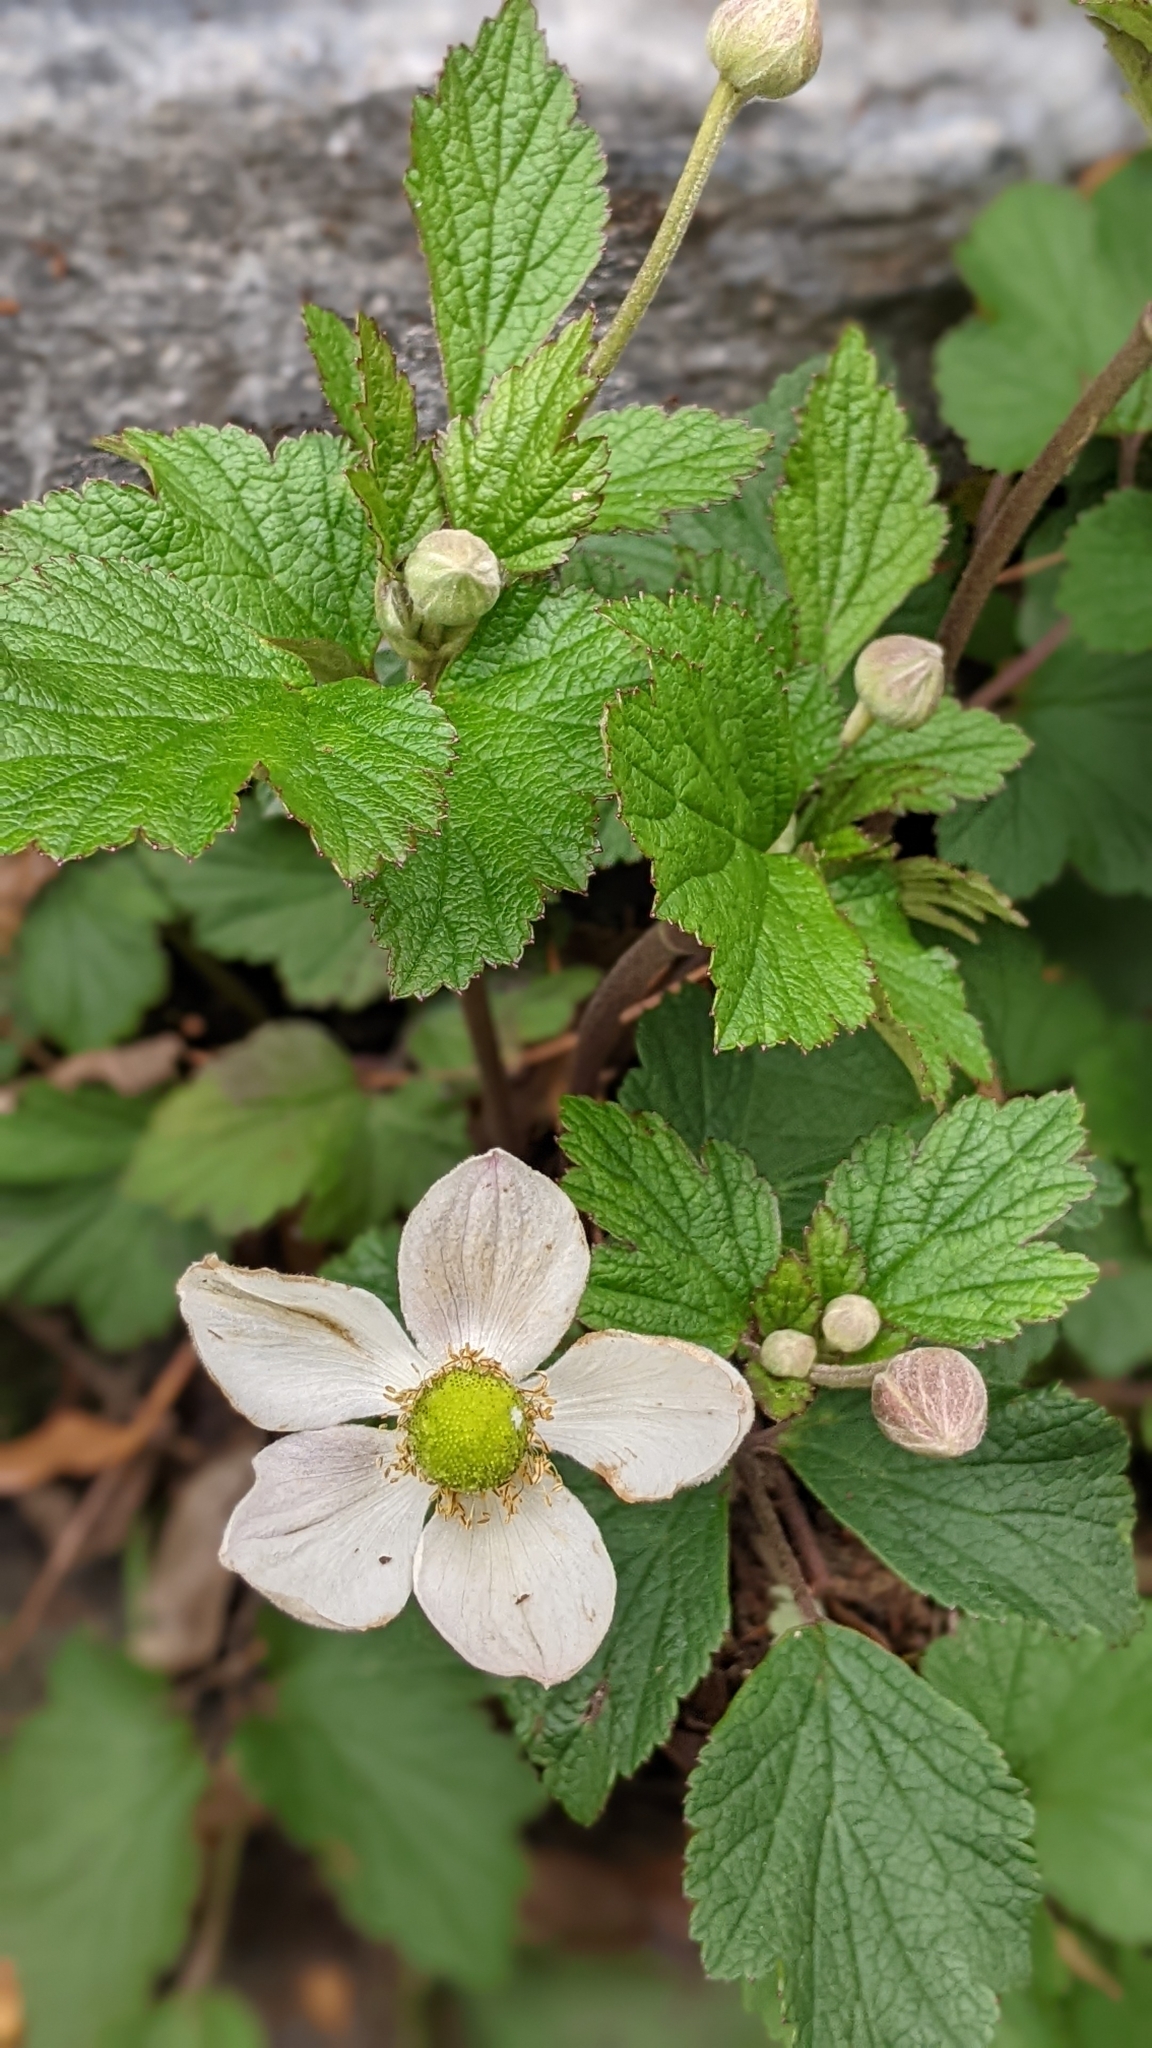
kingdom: Plantae
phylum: Tracheophyta
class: Magnoliopsida
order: Ranunculales
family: Ranunculaceae
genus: Eriocapitella
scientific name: Eriocapitella vitifolia
